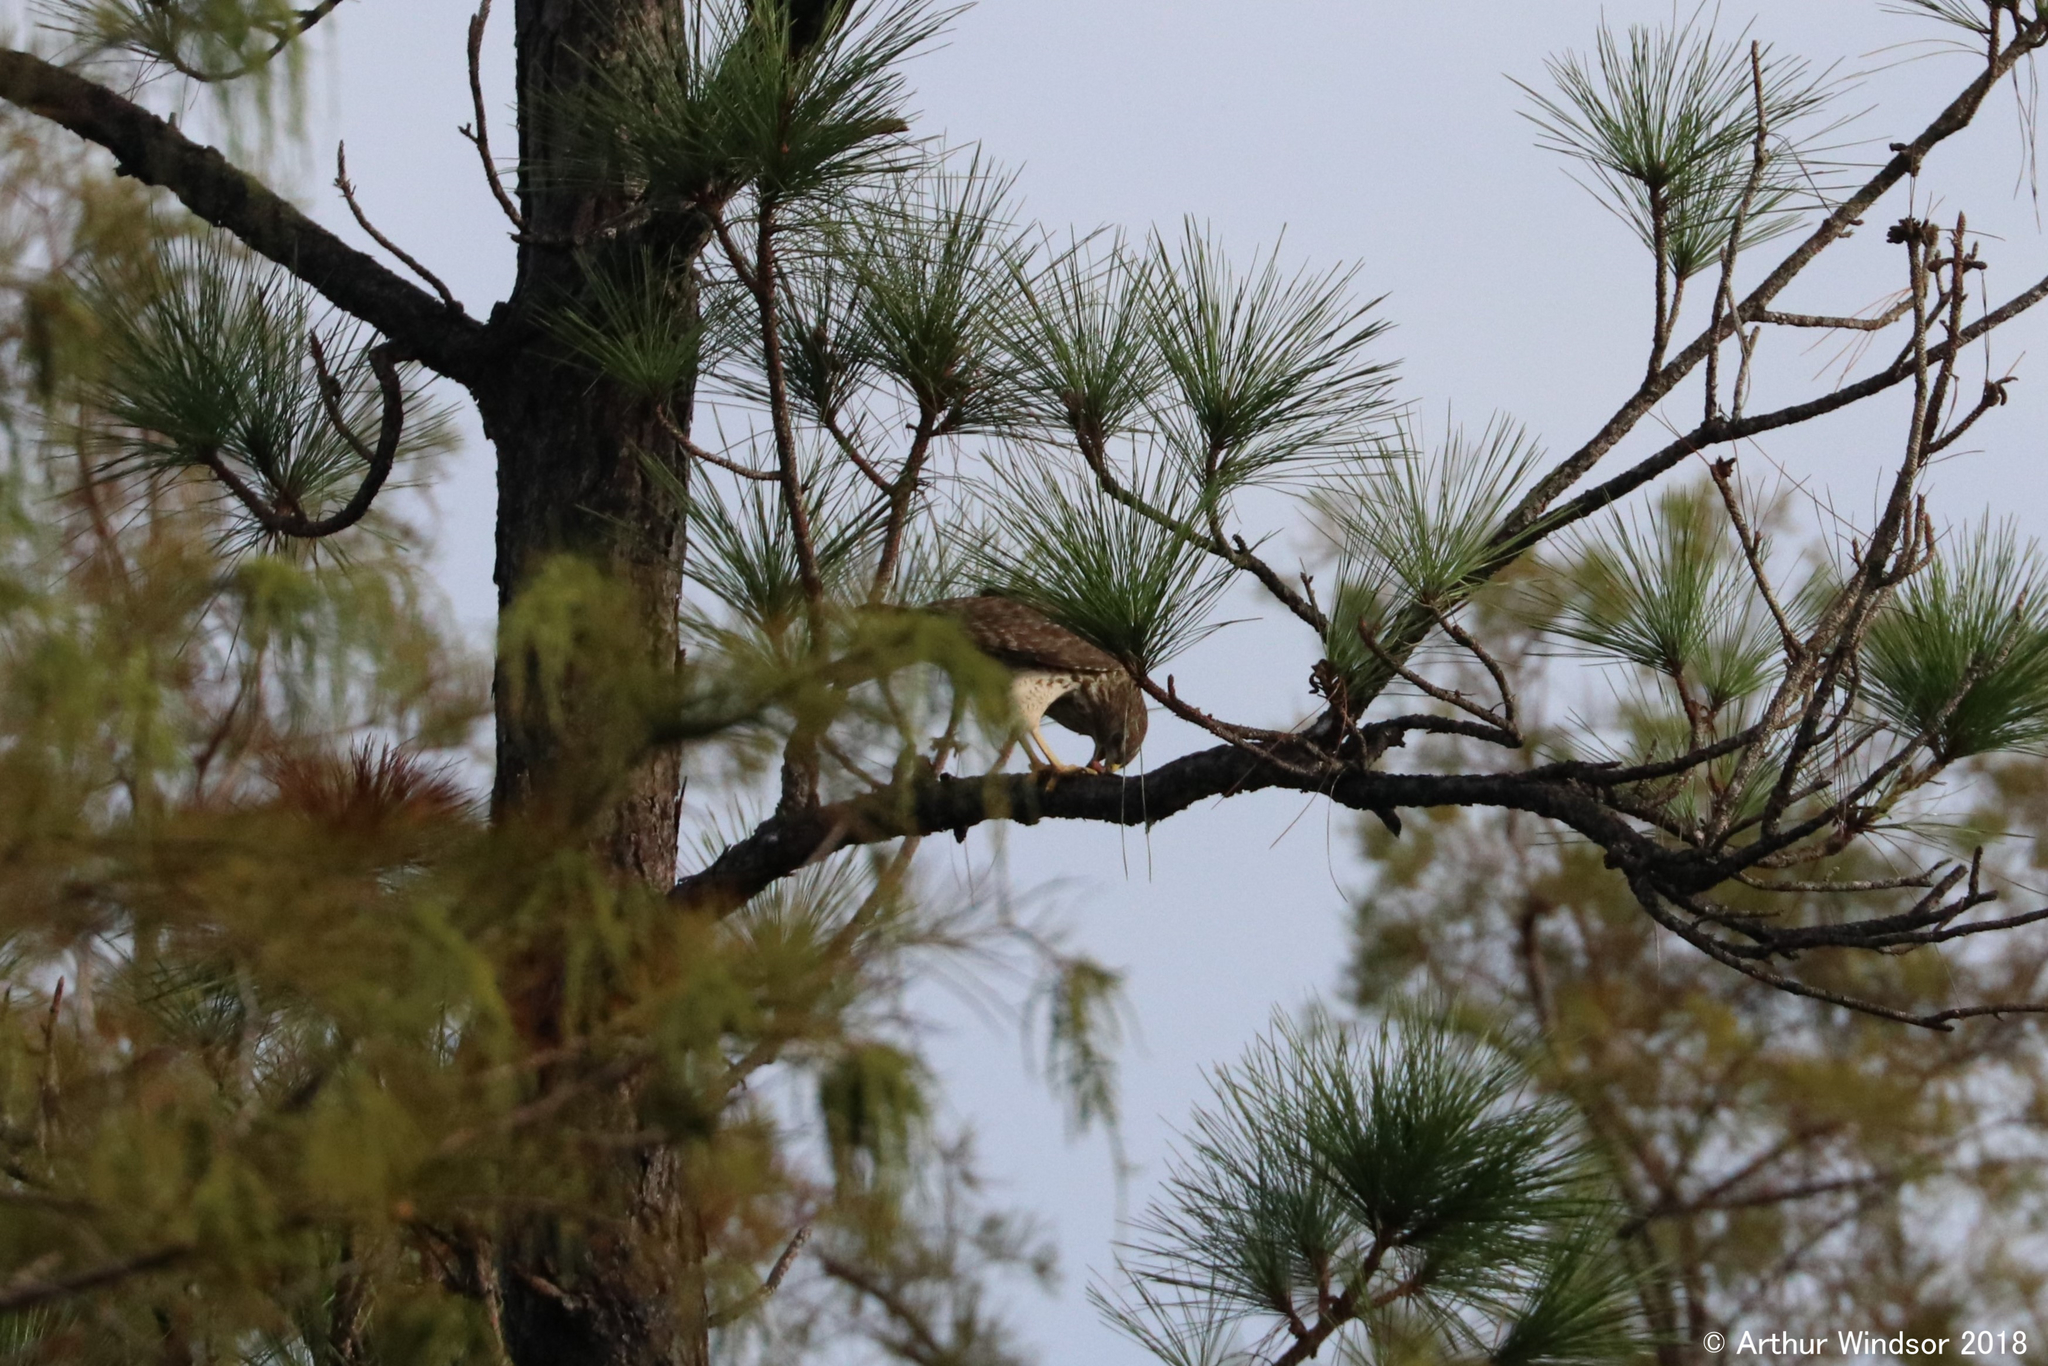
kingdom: Animalia
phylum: Chordata
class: Aves
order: Accipitriformes
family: Accipitridae
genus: Buteo
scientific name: Buteo lineatus
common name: Red-shouldered hawk
